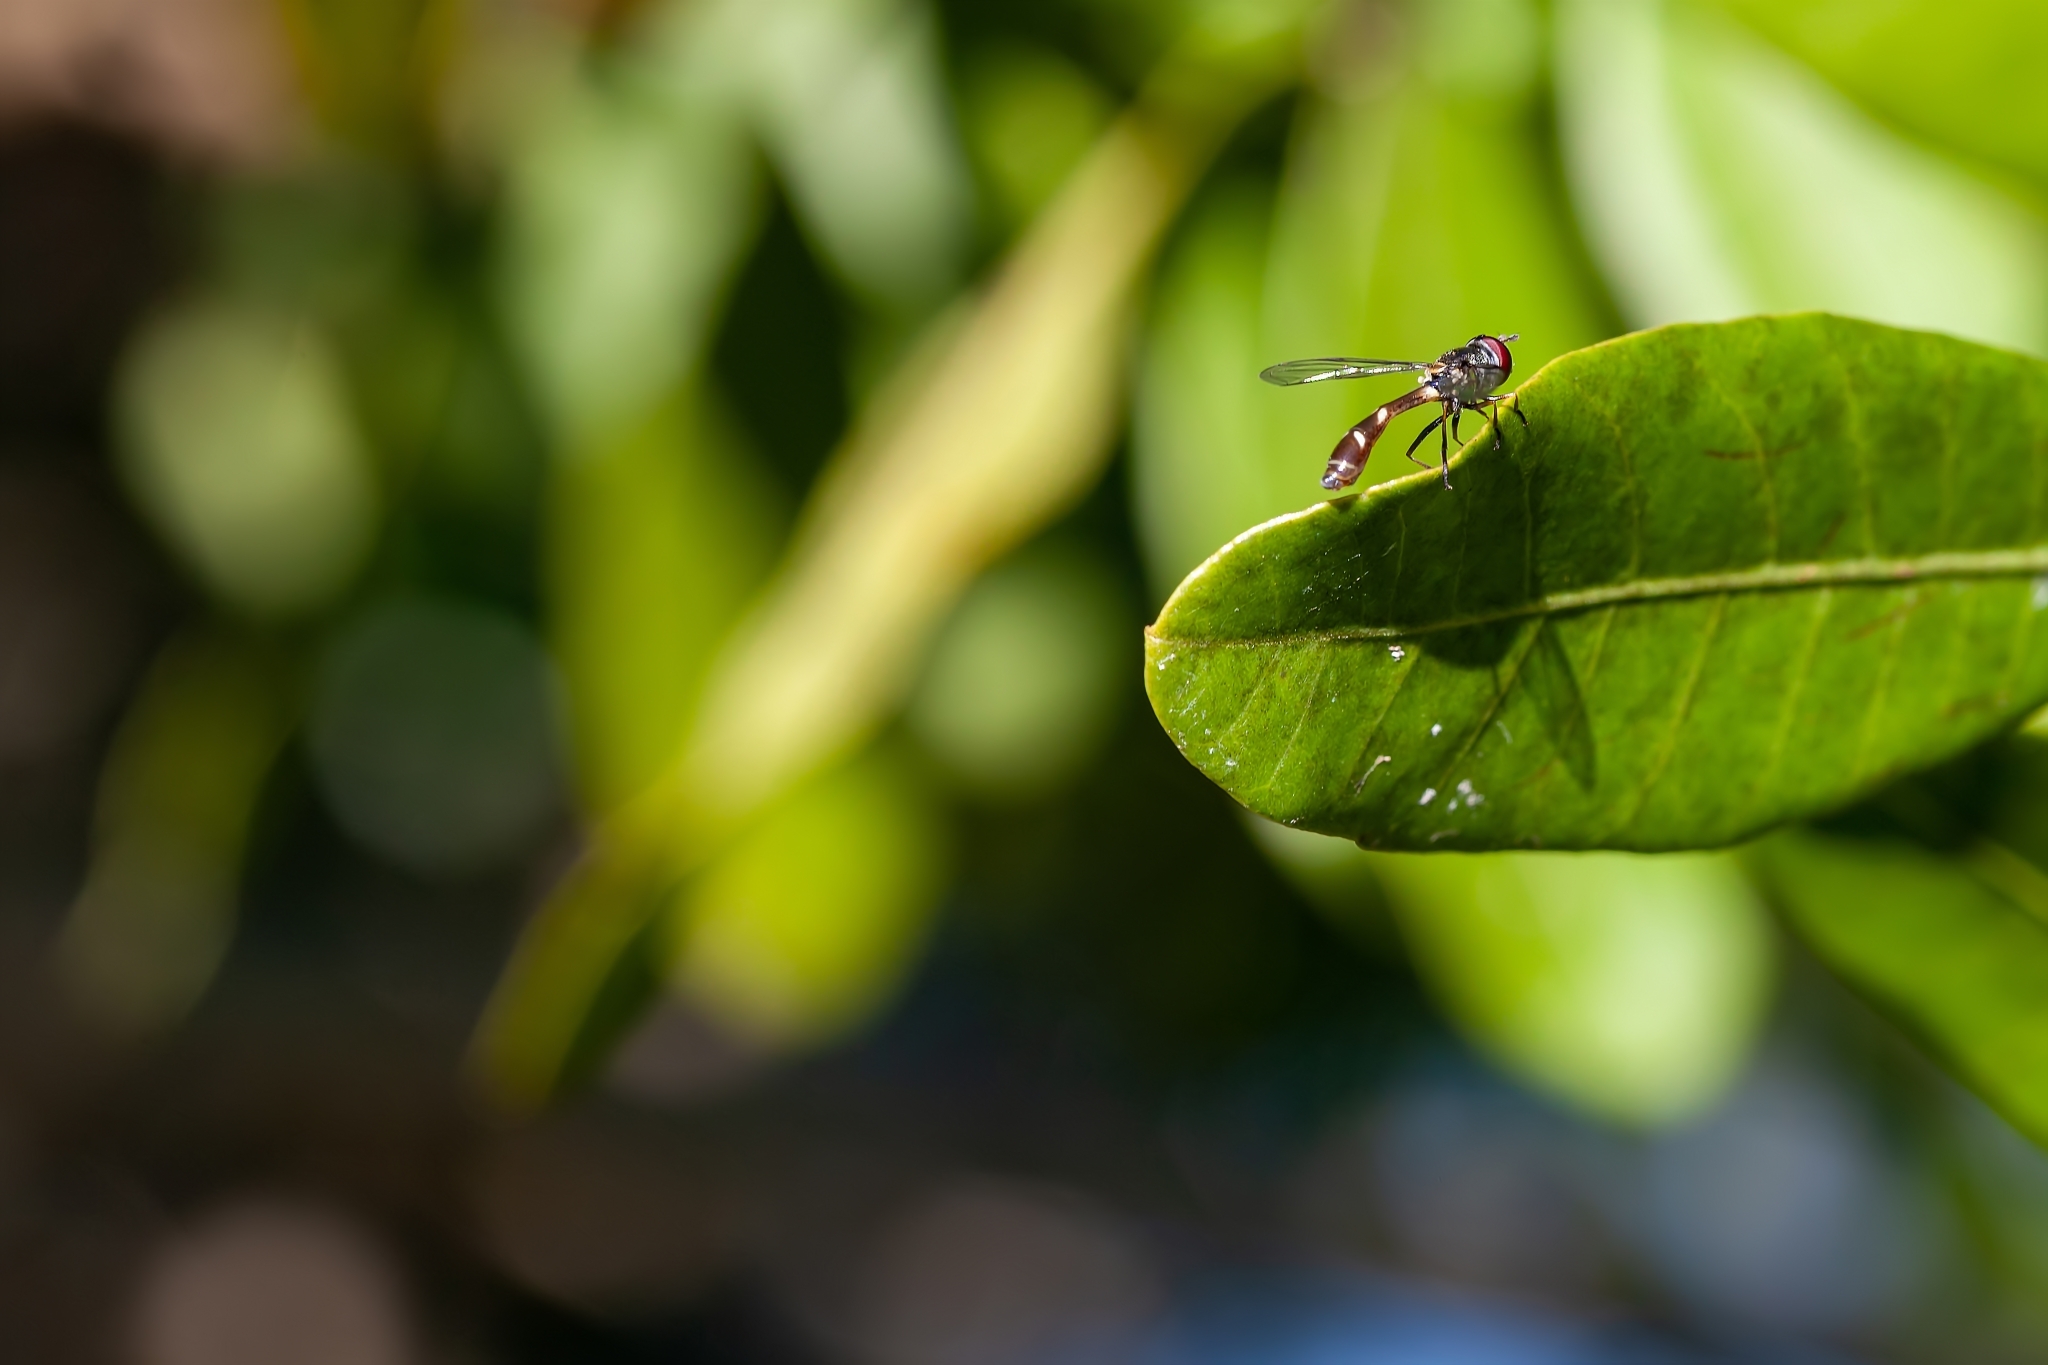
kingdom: Animalia
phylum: Arthropoda
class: Insecta
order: Diptera
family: Syrphidae
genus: Dioprosopa
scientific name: Dioprosopa clavatus
